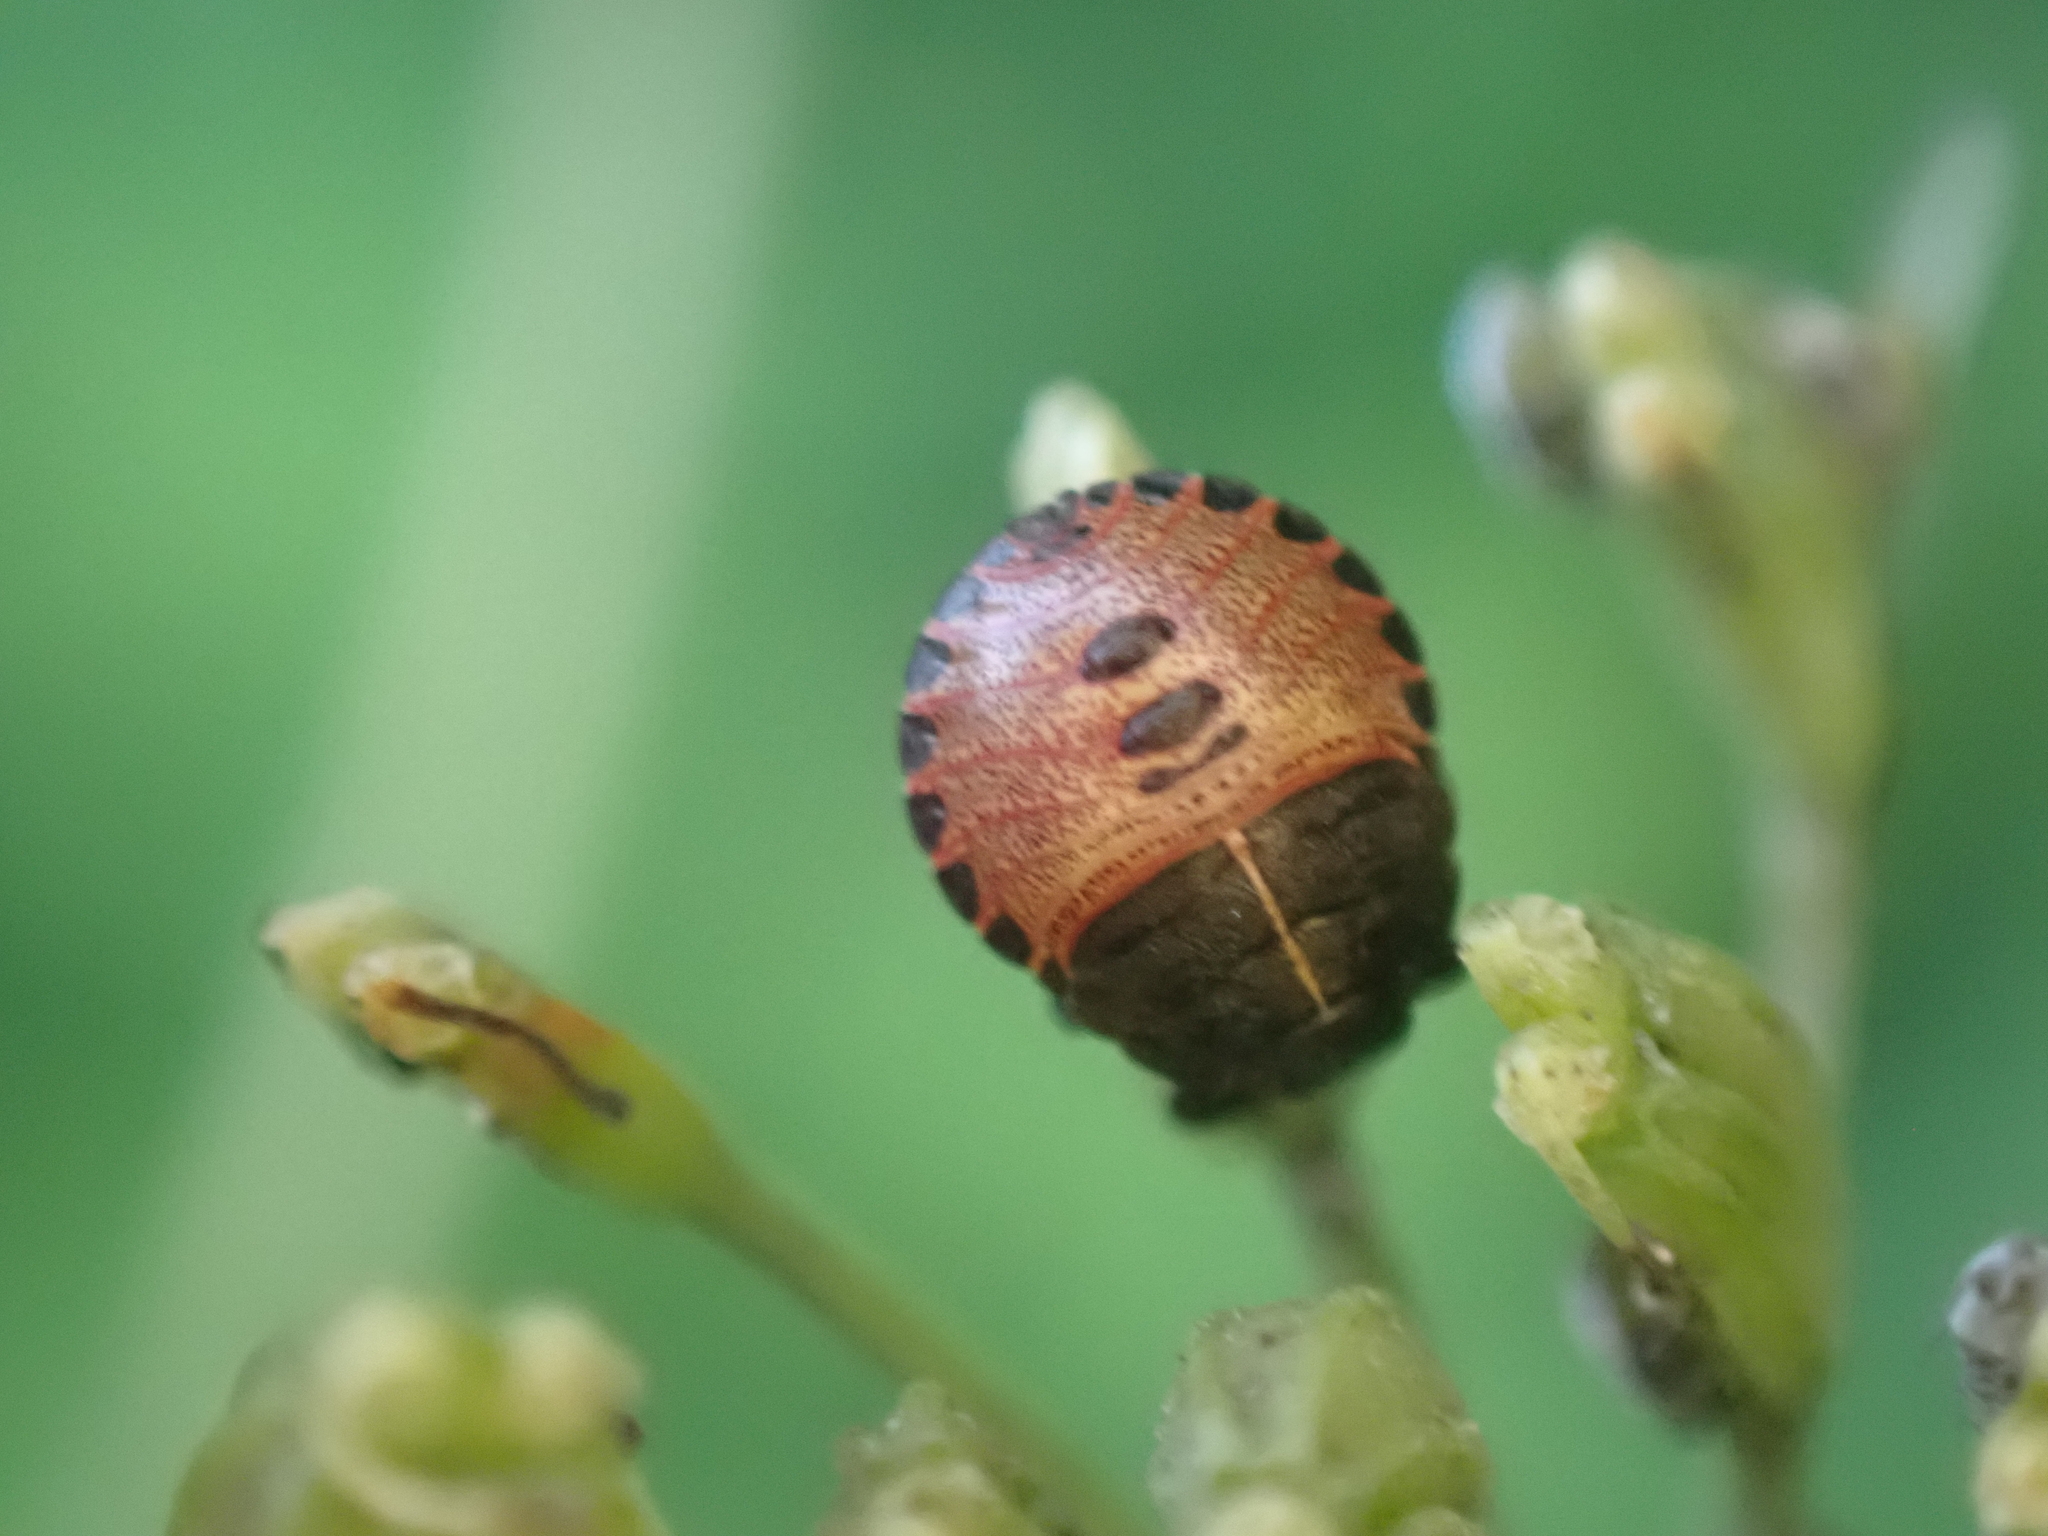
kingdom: Animalia
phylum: Arthropoda
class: Insecta
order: Hemiptera
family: Pentatomidae
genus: Graphosoma
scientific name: Graphosoma italicum
